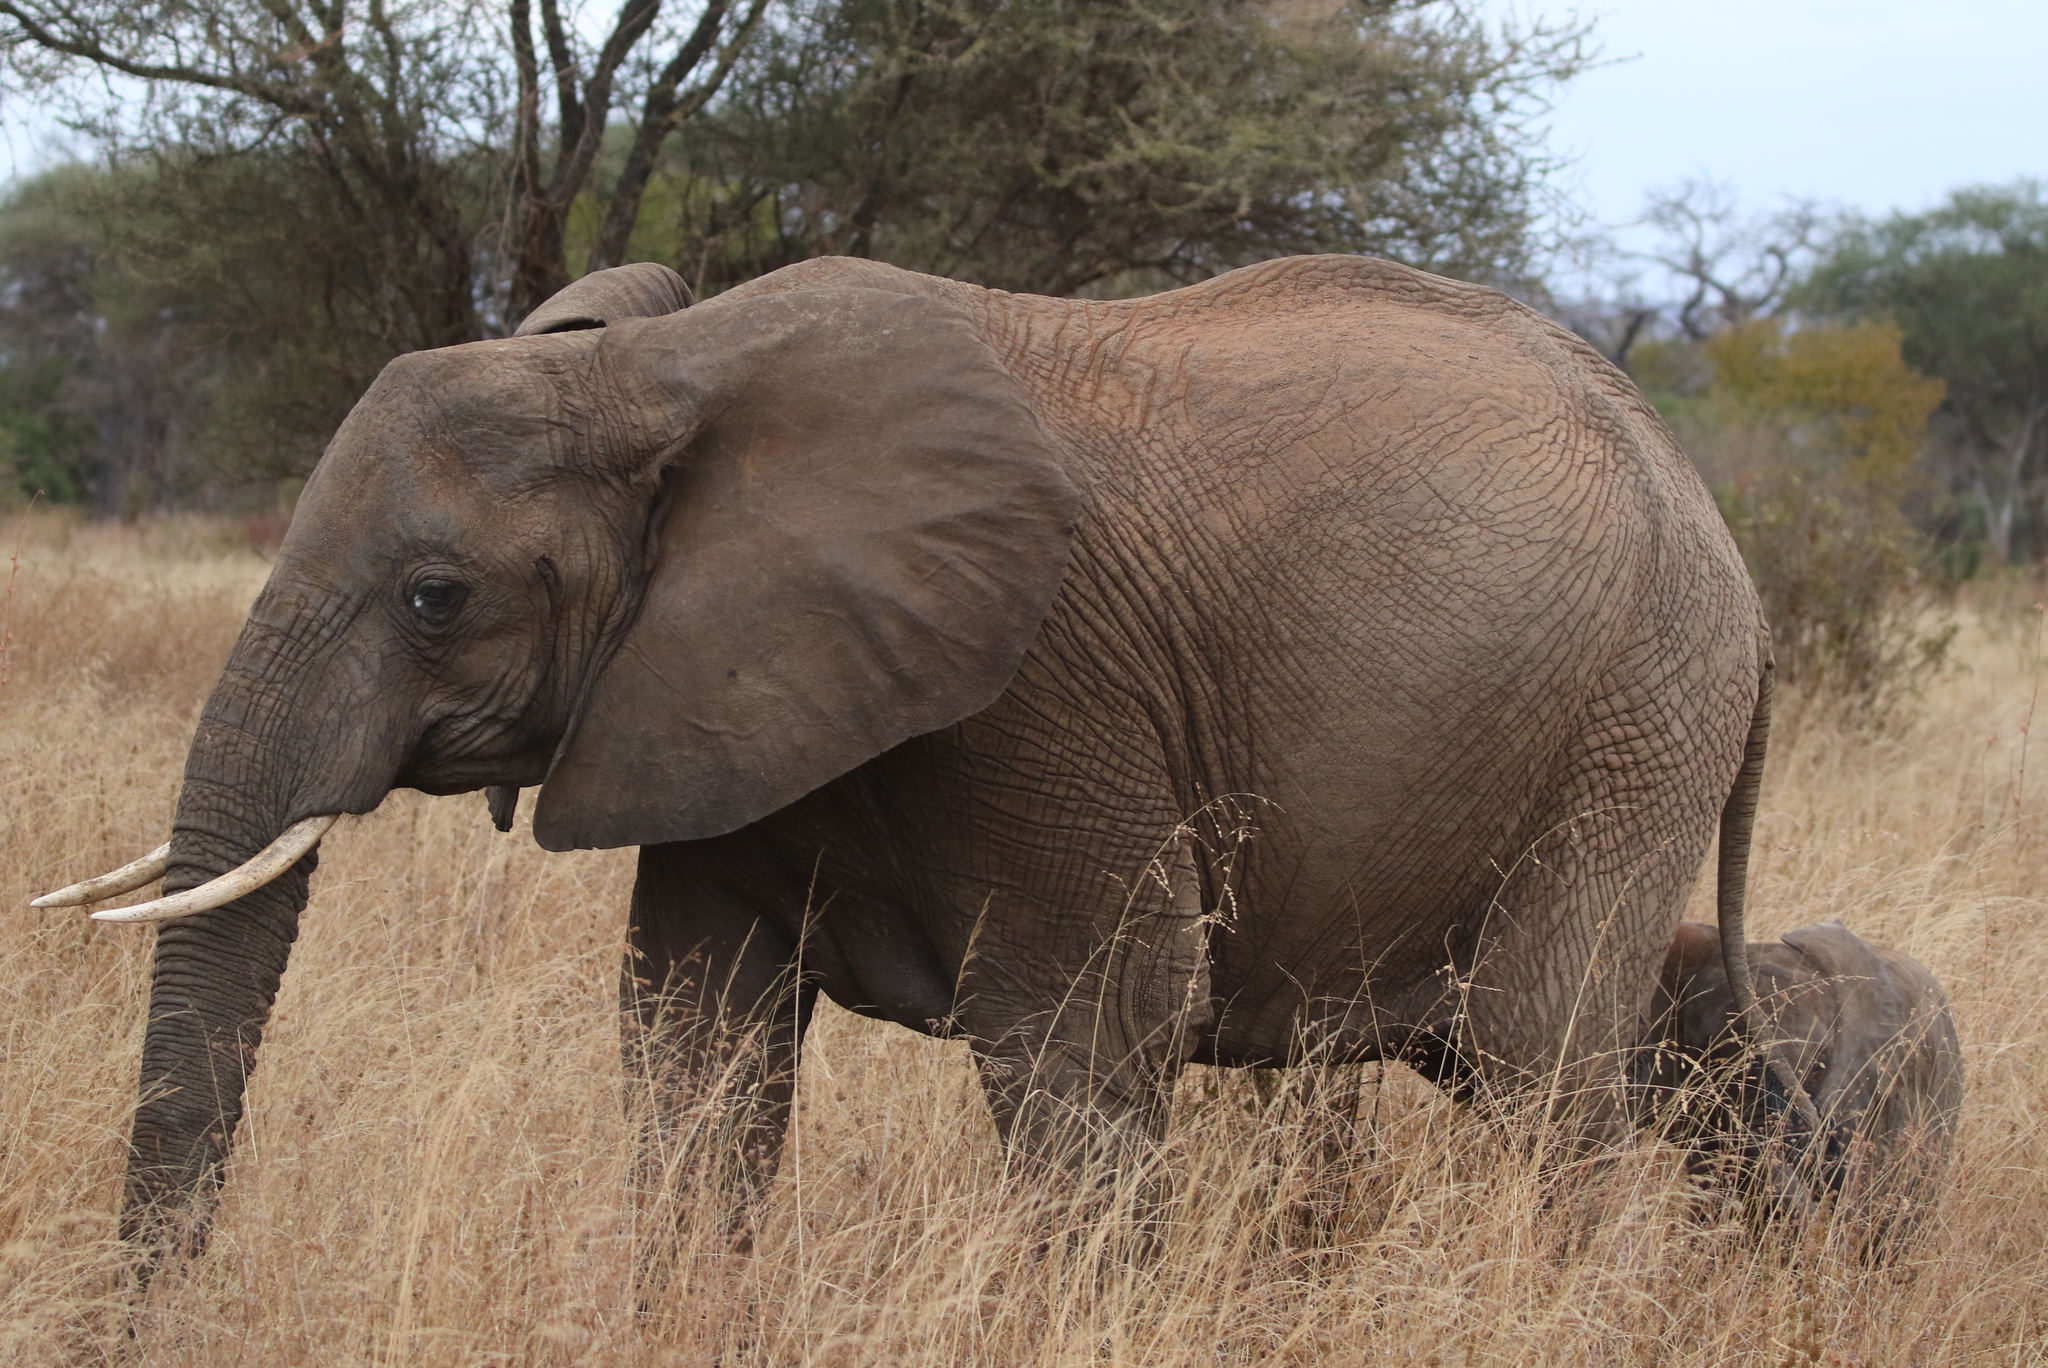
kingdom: Animalia
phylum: Chordata
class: Mammalia
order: Proboscidea
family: Elephantidae
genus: Loxodonta
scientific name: Loxodonta africana
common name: African elephant
